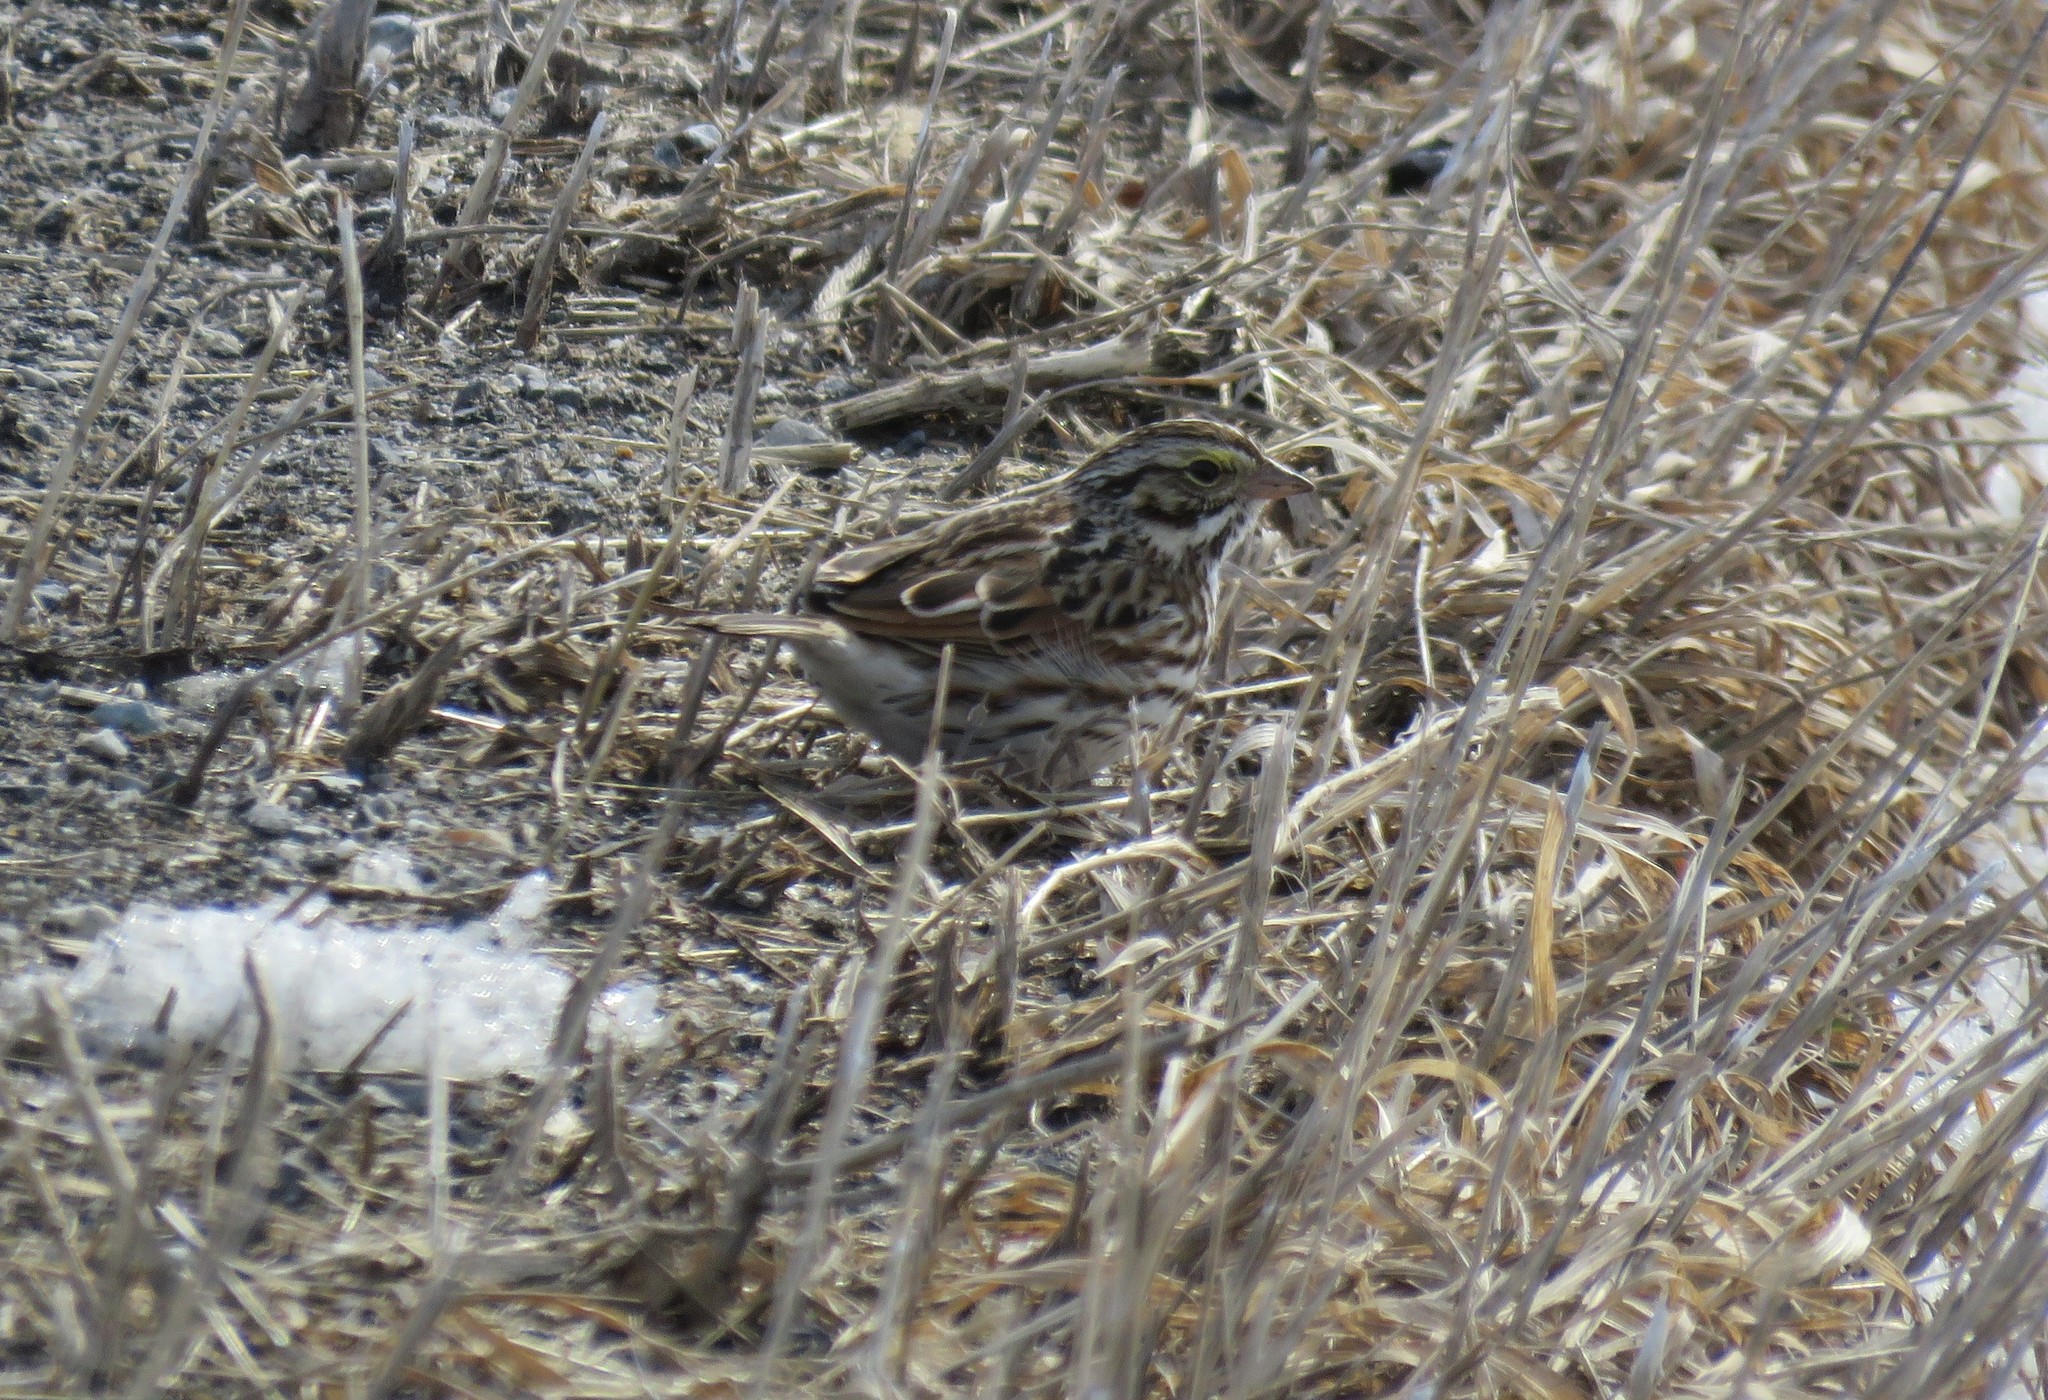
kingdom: Animalia
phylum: Chordata
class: Aves
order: Passeriformes
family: Passerellidae
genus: Passerculus
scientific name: Passerculus sandwichensis
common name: Savannah sparrow
